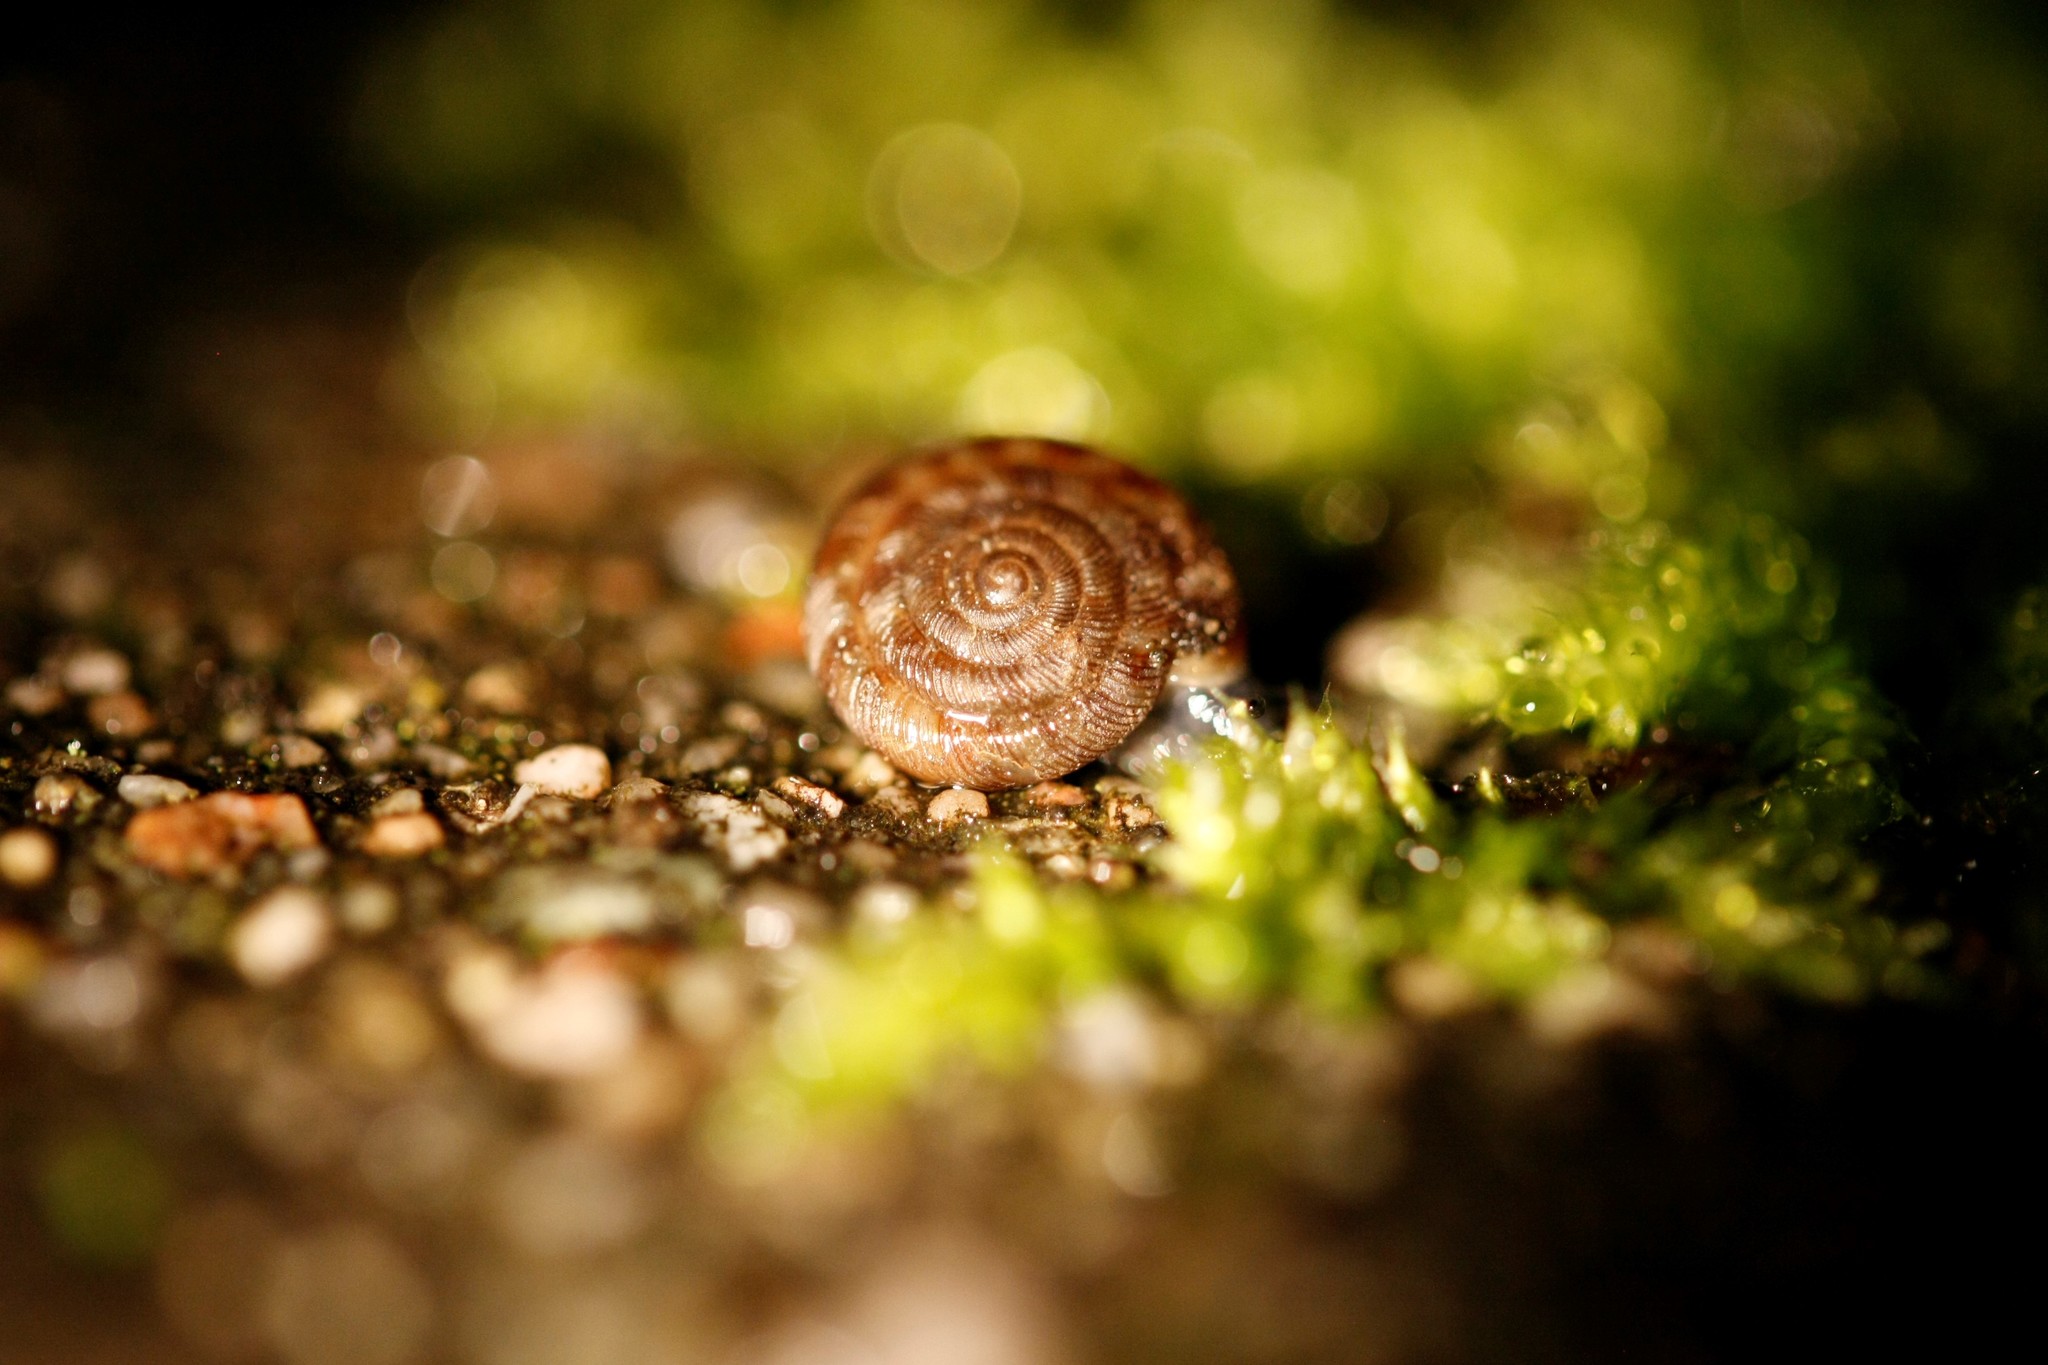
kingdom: Animalia
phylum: Mollusca
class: Gastropoda
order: Stylommatophora
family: Discidae
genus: Discus
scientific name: Discus rotundatus
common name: Rounded snail
